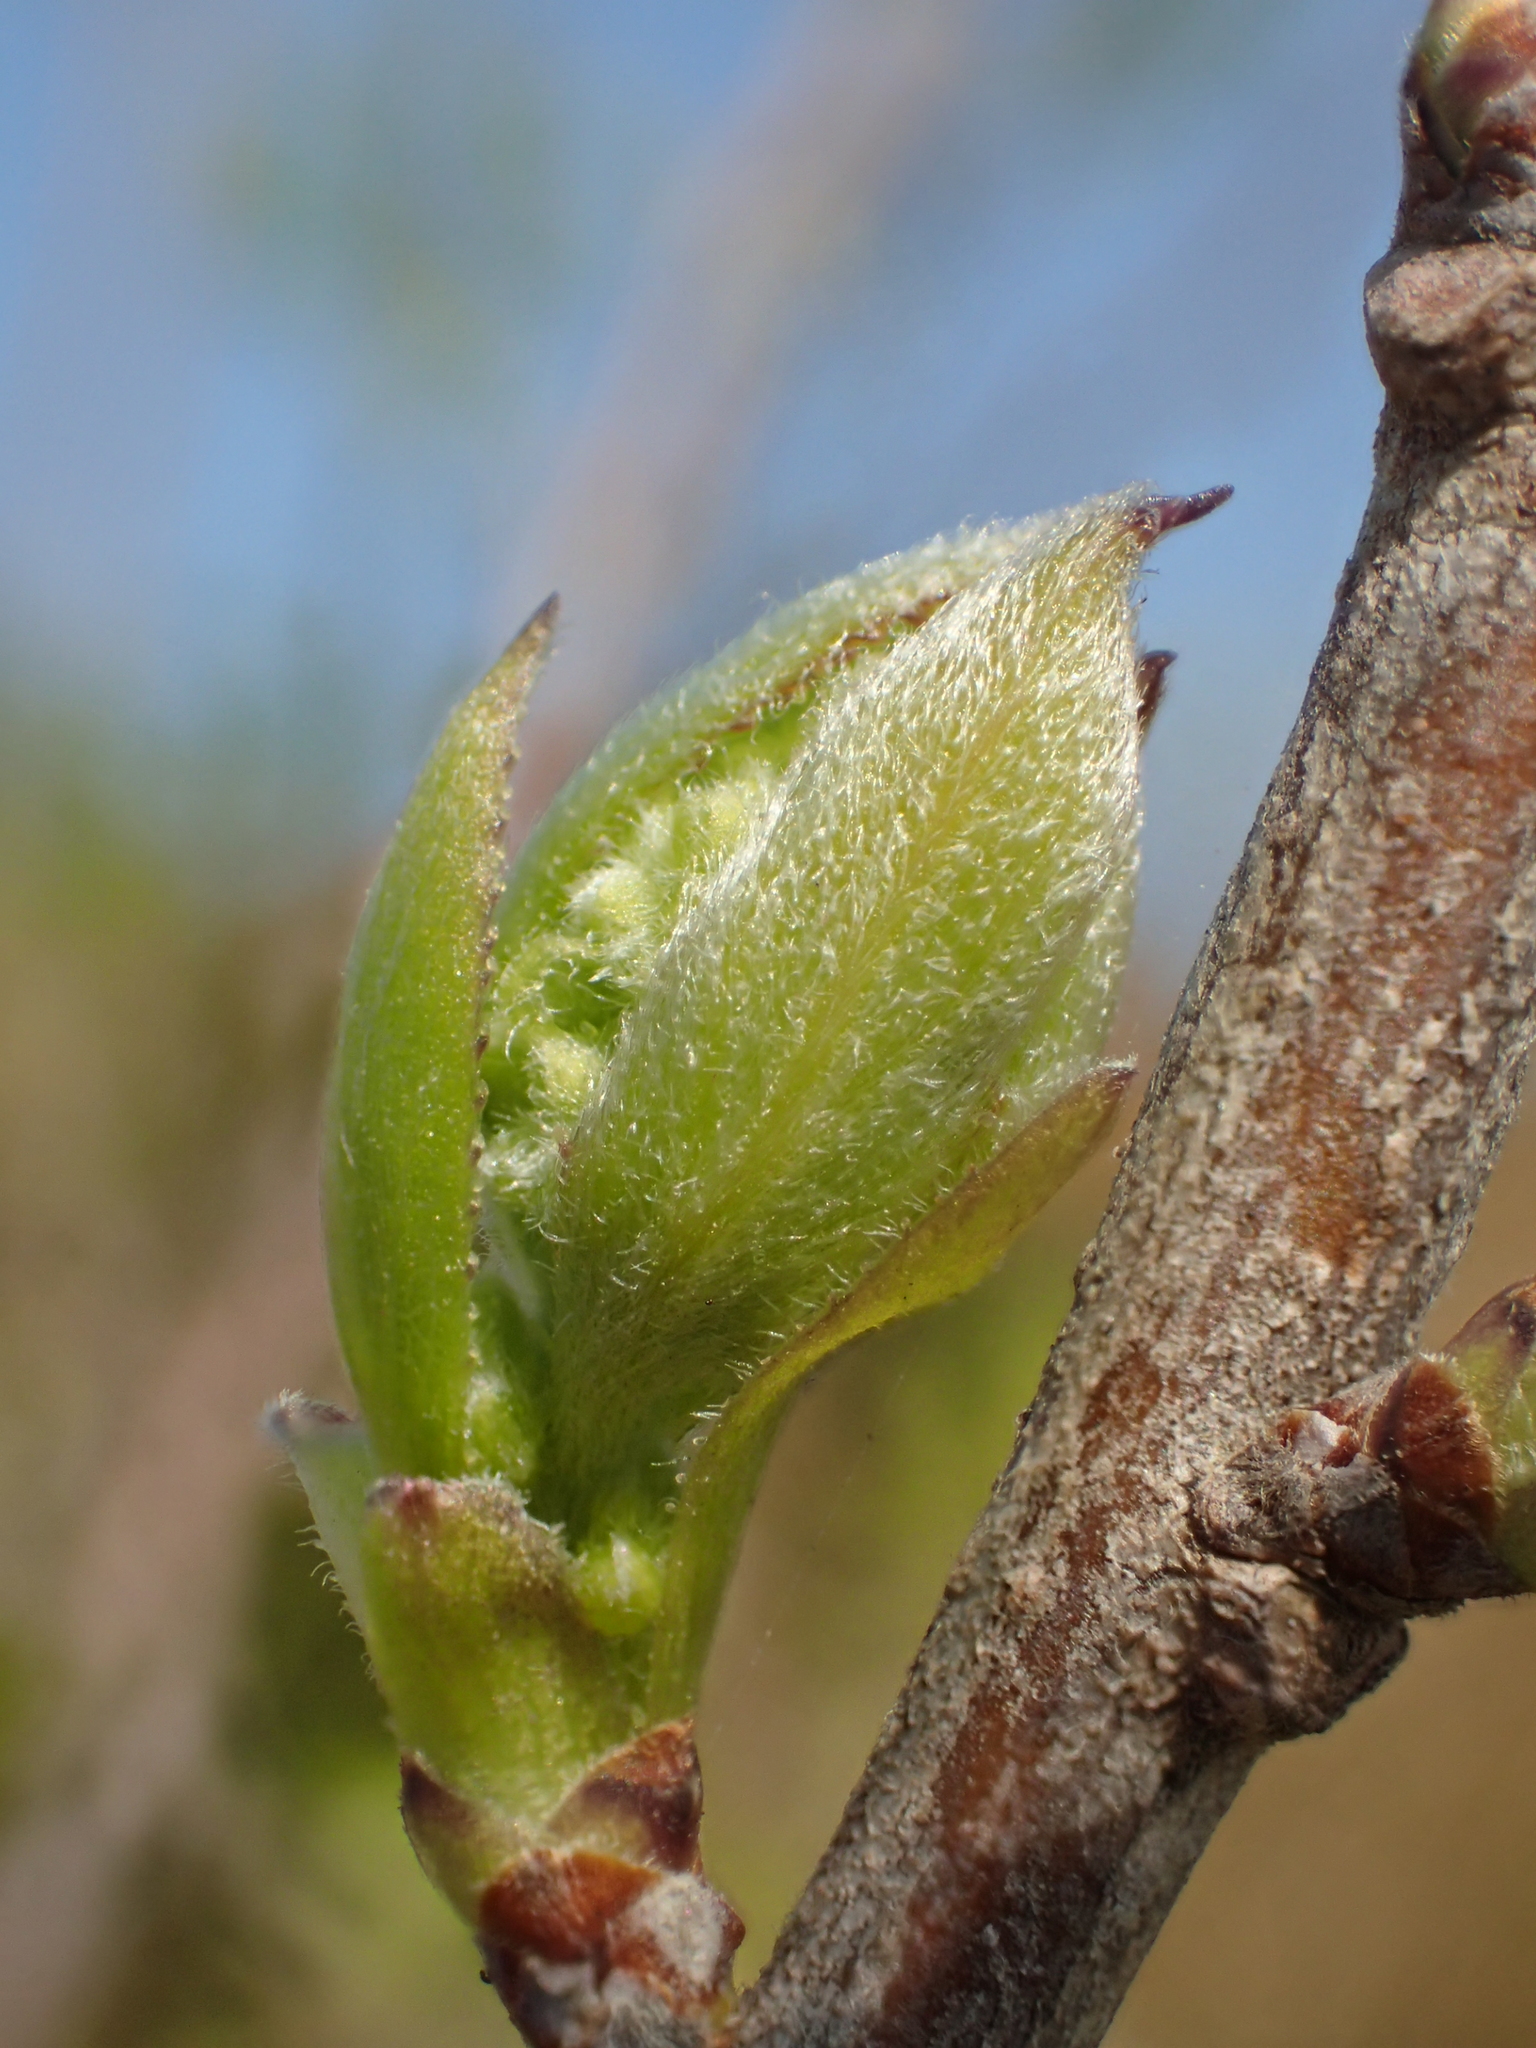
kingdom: Plantae
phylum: Tracheophyta
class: Magnoliopsida
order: Ericales
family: Symplocaceae
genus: Symplocos
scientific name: Symplocos paniculata
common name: Sapphire-berry
